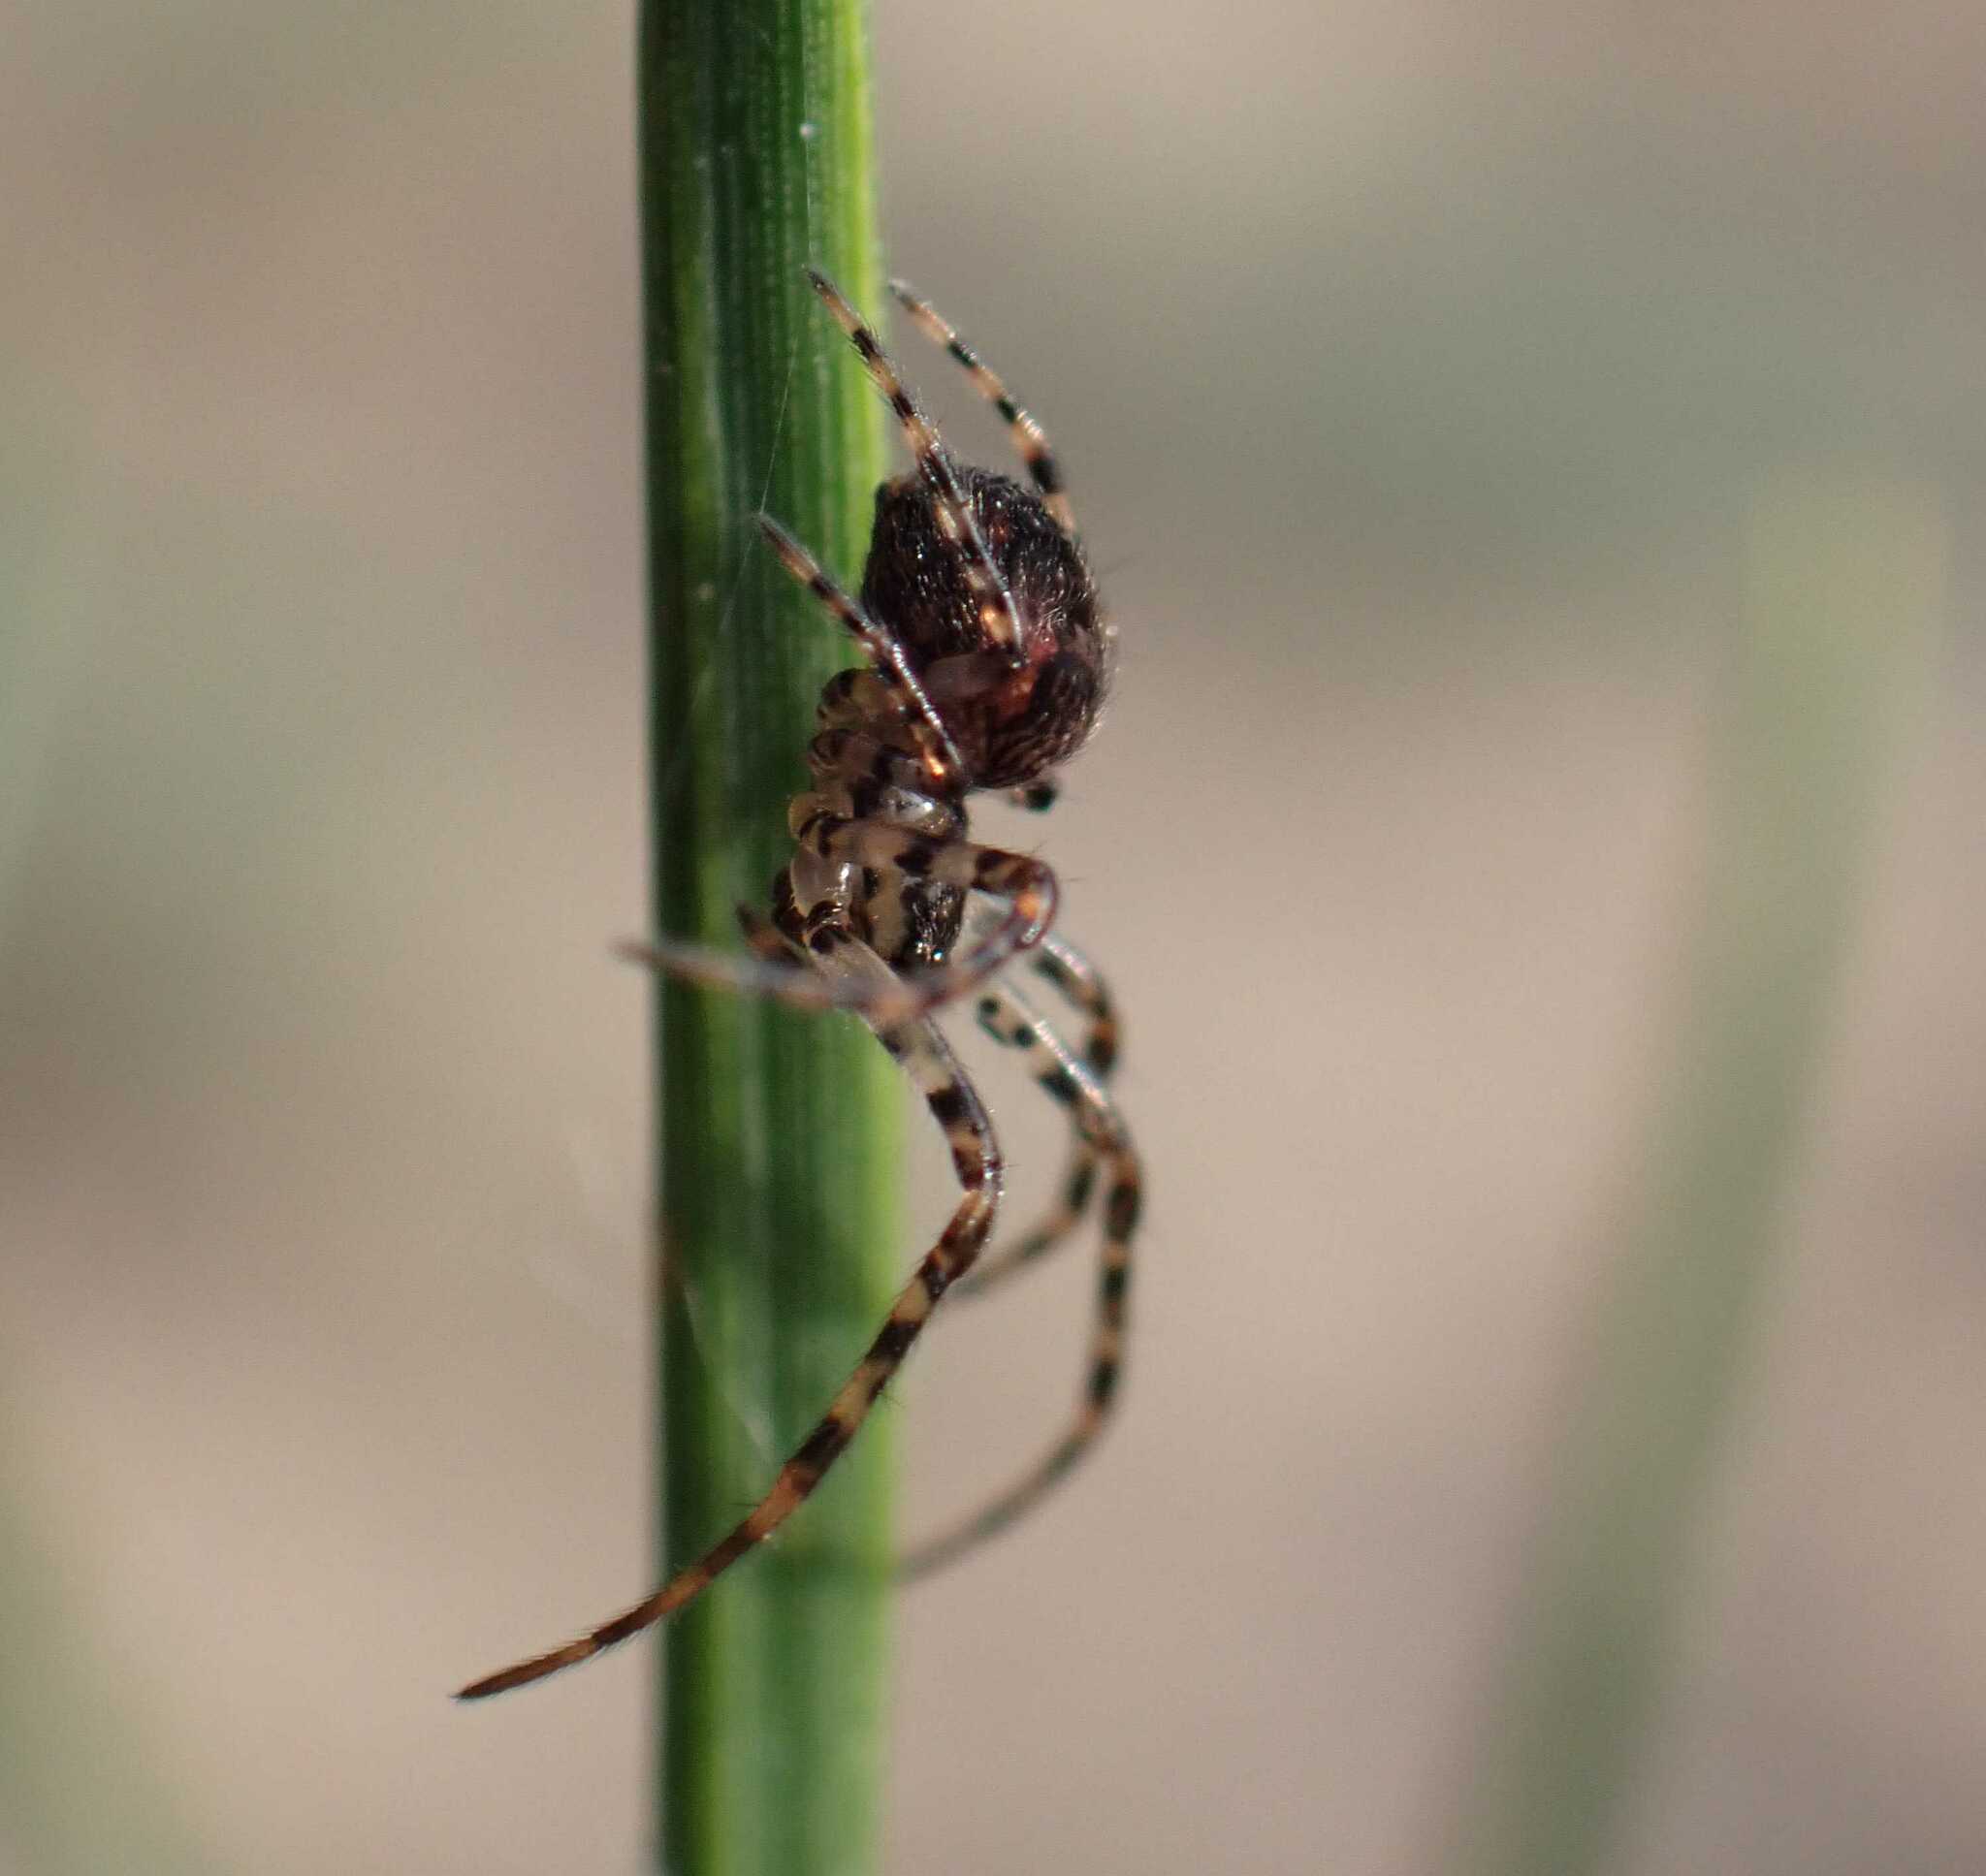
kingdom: Animalia
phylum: Arthropoda
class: Arachnida
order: Araneae
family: Tetragnathidae
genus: Metellina
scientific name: Metellina merianae
